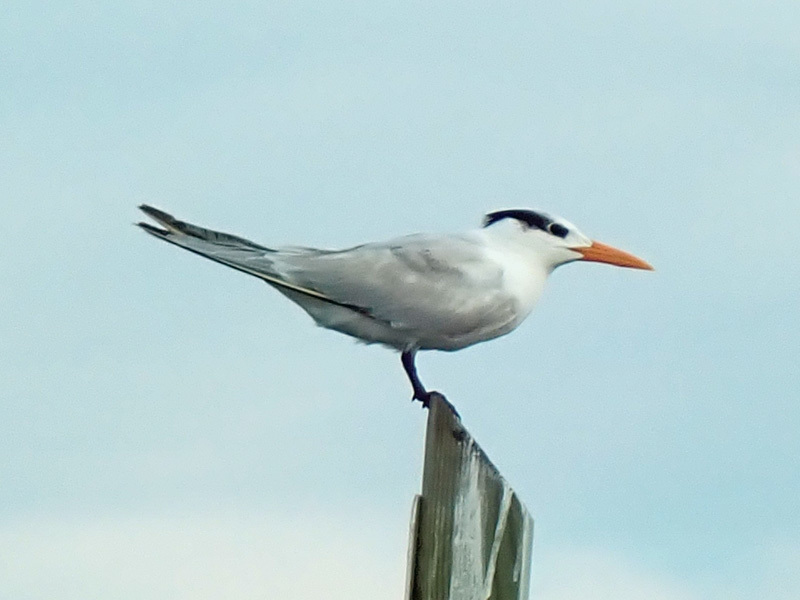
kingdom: Animalia
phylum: Chordata
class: Aves
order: Charadriiformes
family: Laridae
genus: Thalasseus
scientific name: Thalasseus maximus
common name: Royal tern
